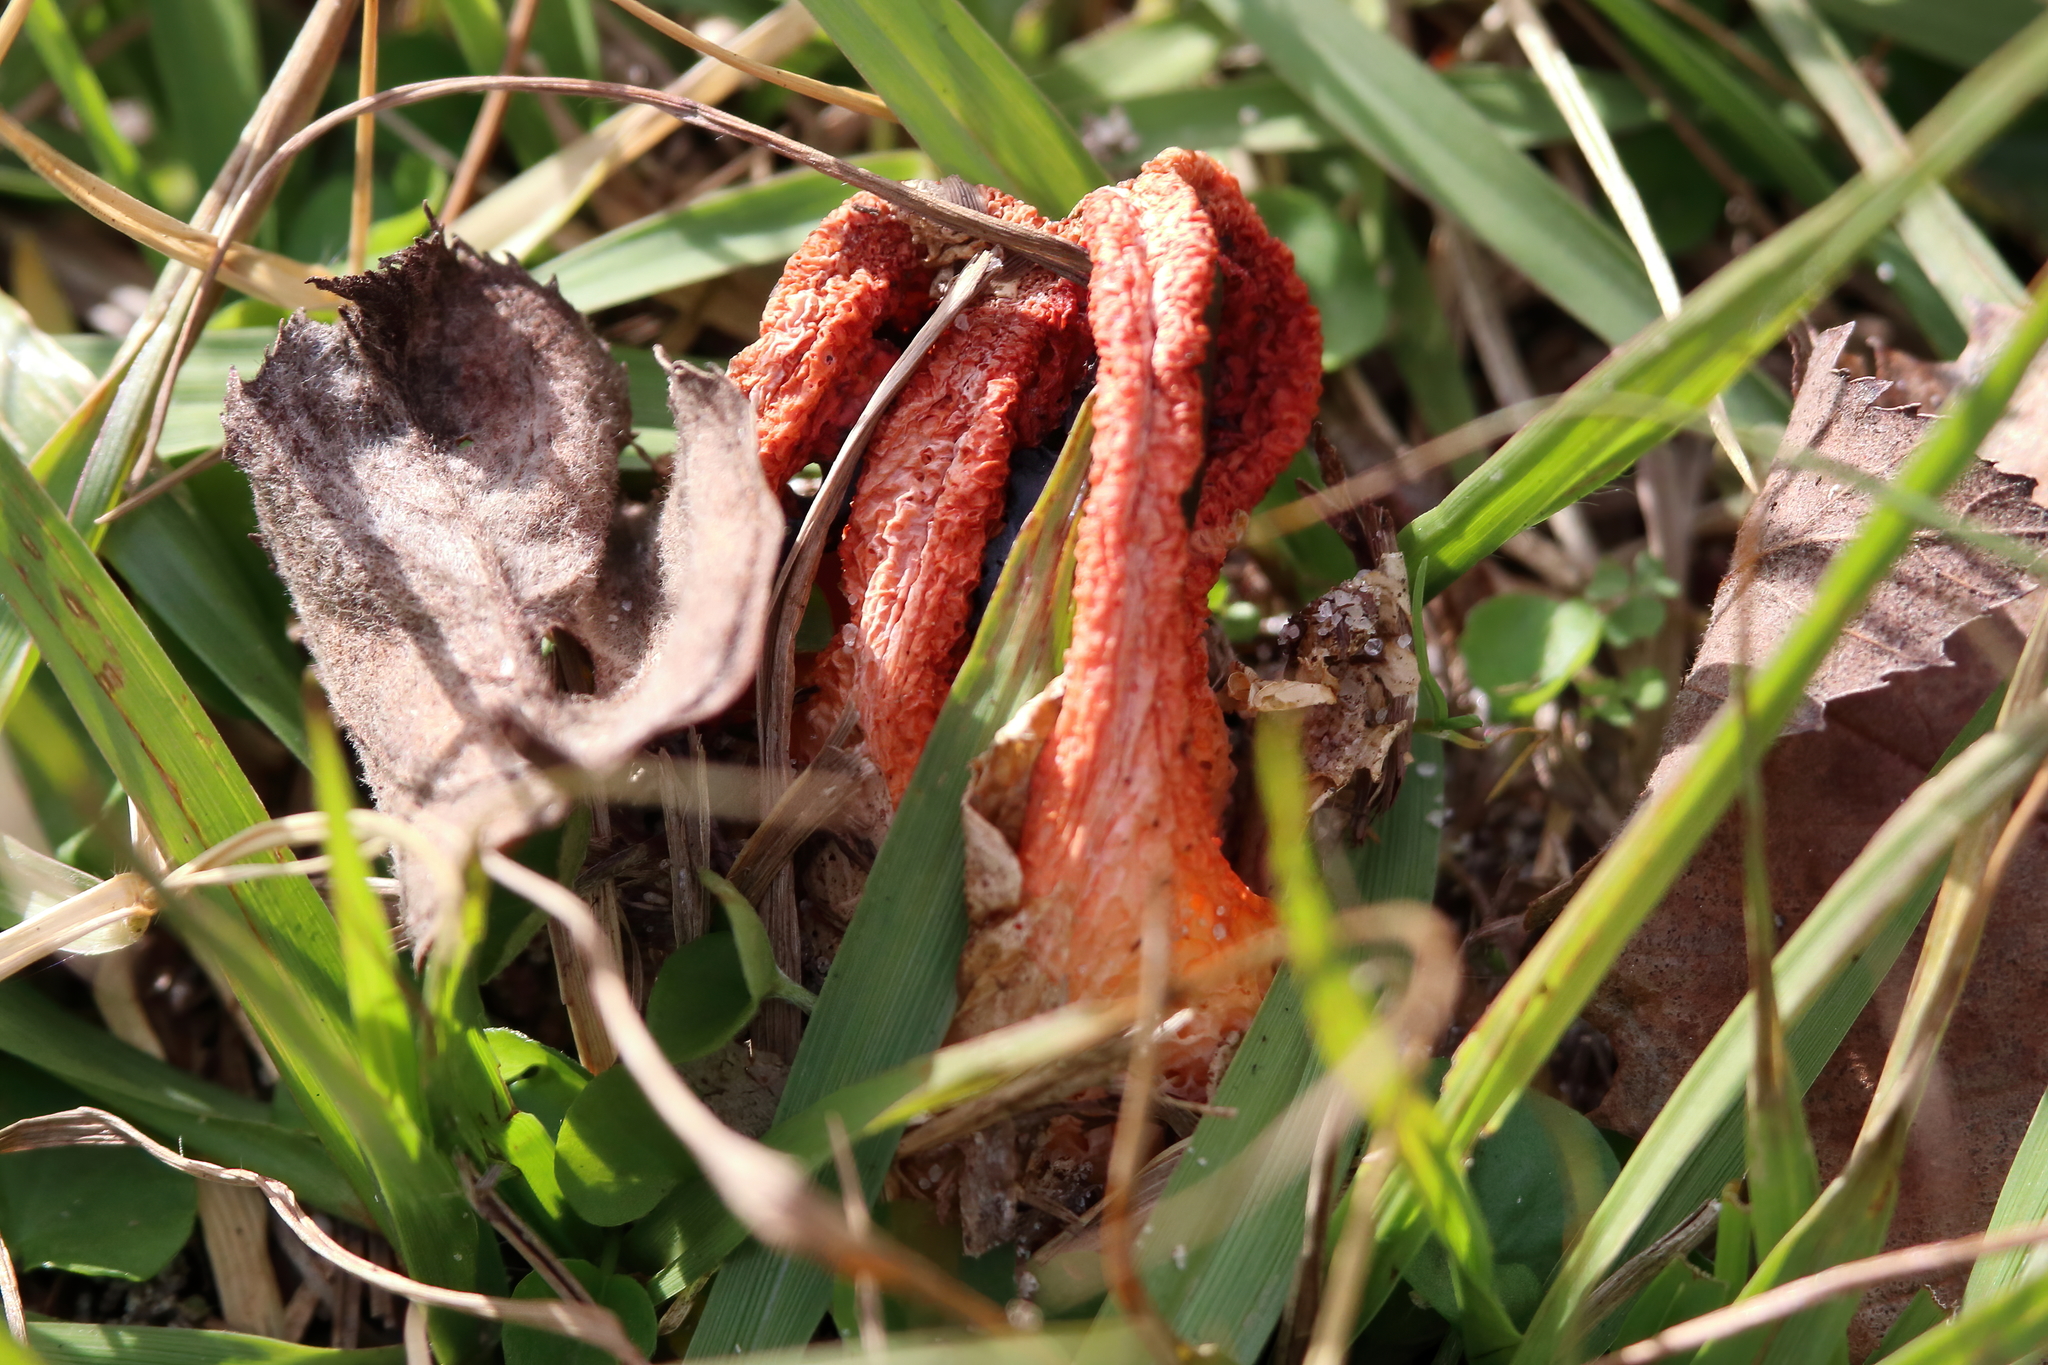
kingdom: Fungi
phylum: Basidiomycota
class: Agaricomycetes
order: Phallales
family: Phallaceae
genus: Clathrus
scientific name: Clathrus columnatus
